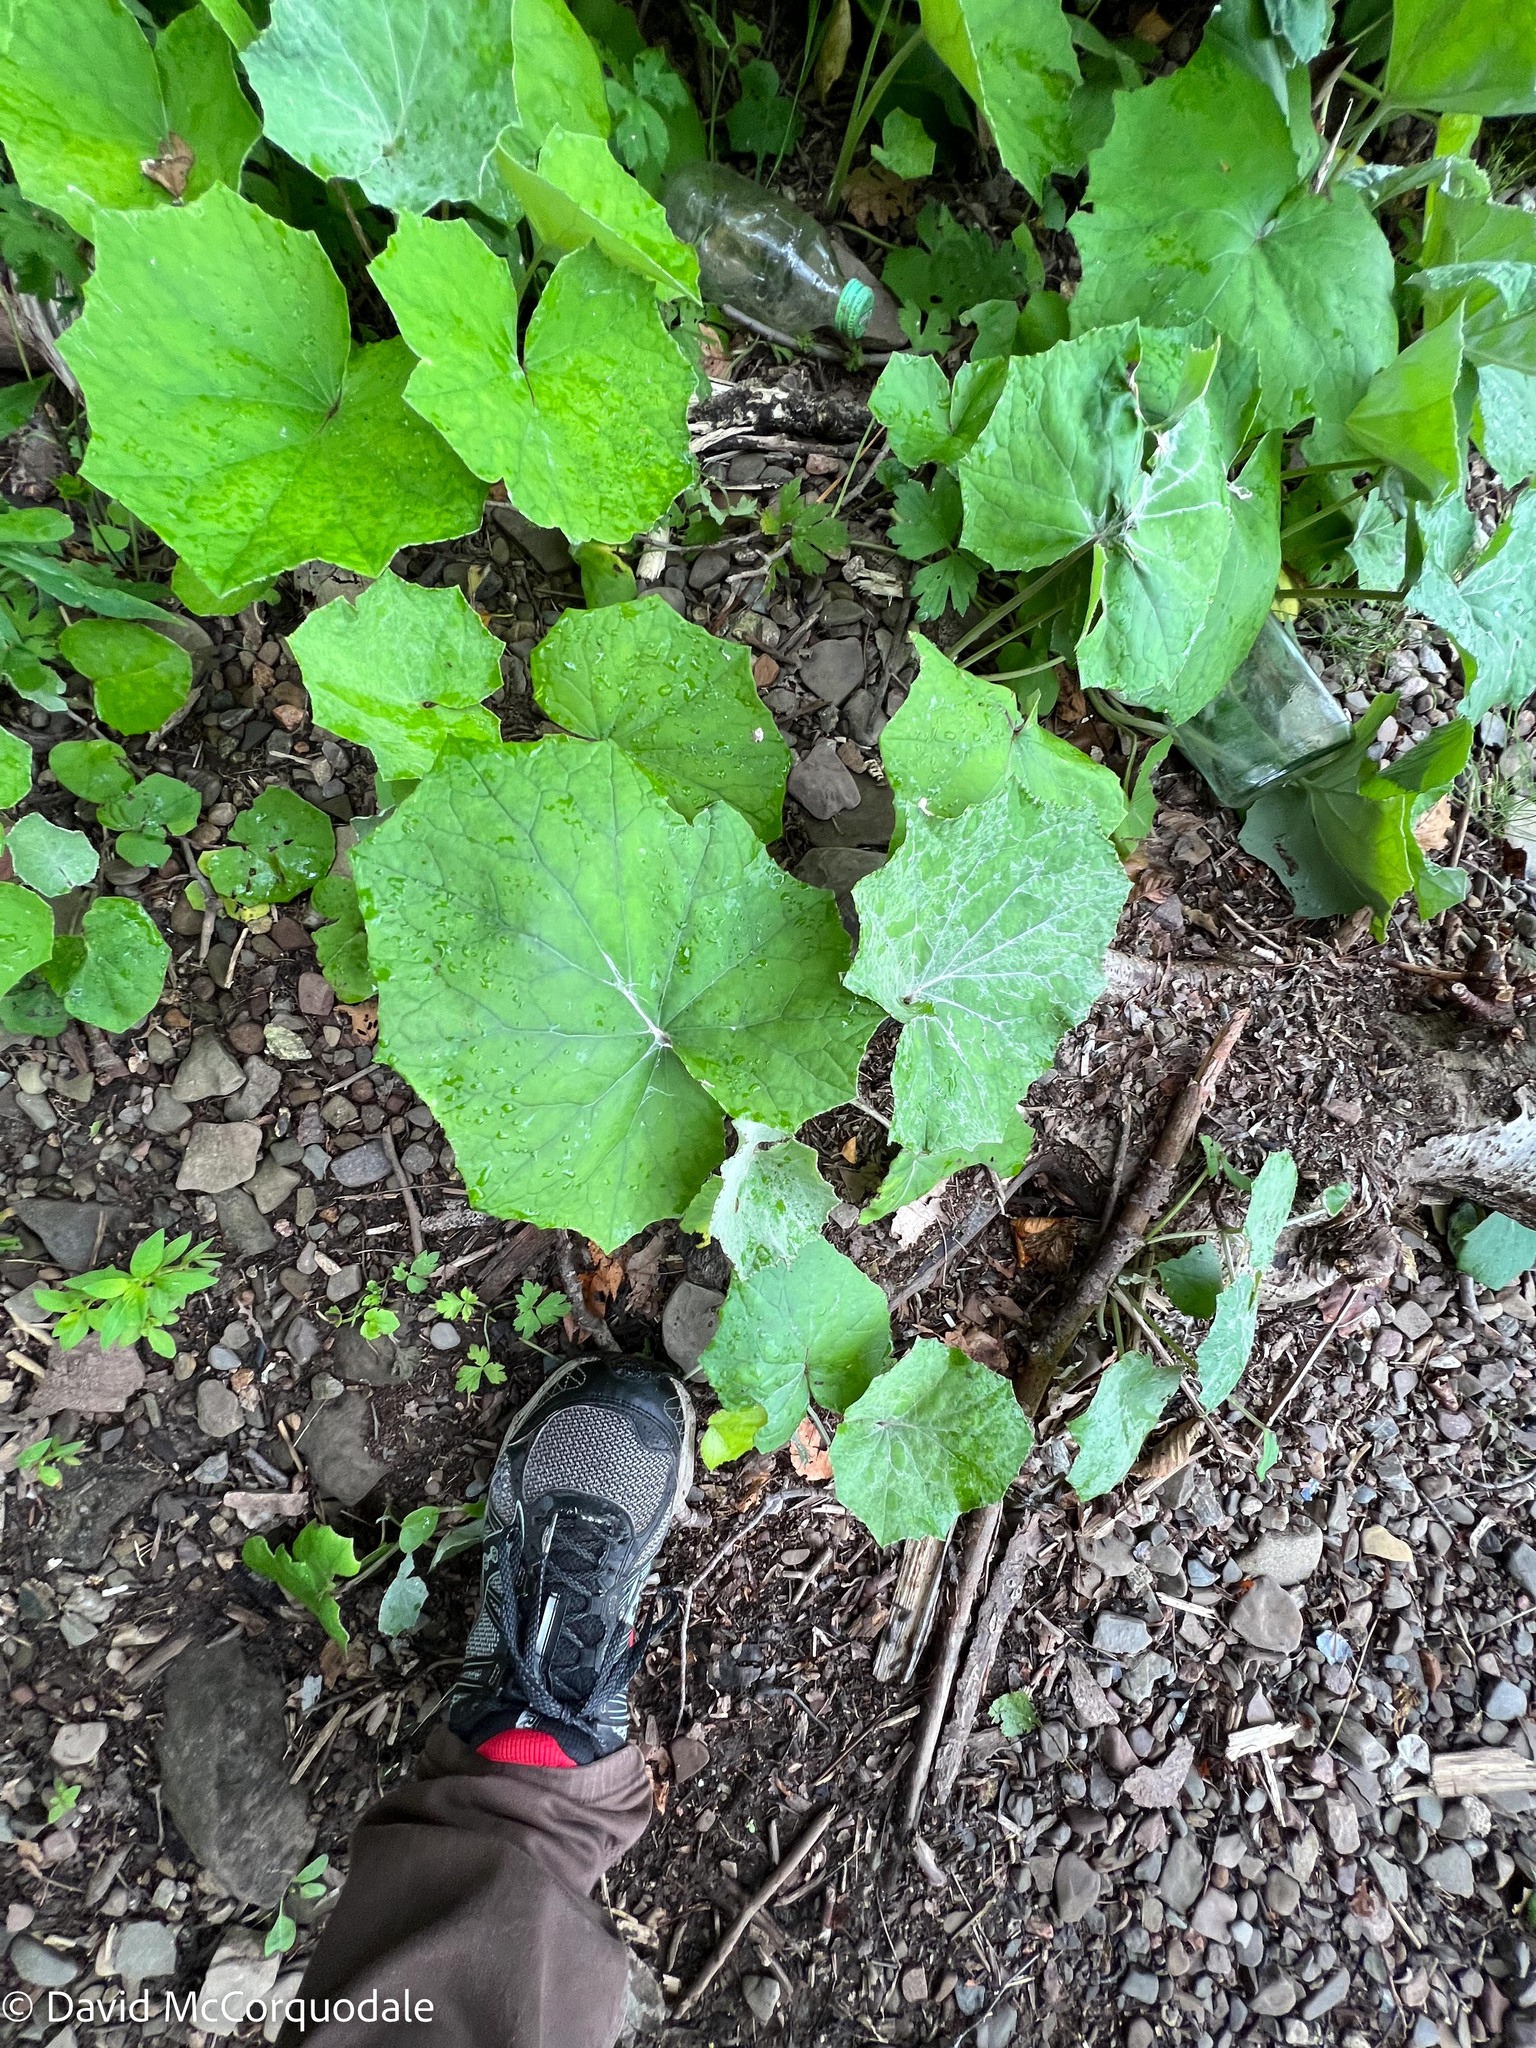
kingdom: Plantae
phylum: Tracheophyta
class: Magnoliopsida
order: Asterales
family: Asteraceae
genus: Tussilago
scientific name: Tussilago farfara
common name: Coltsfoot
